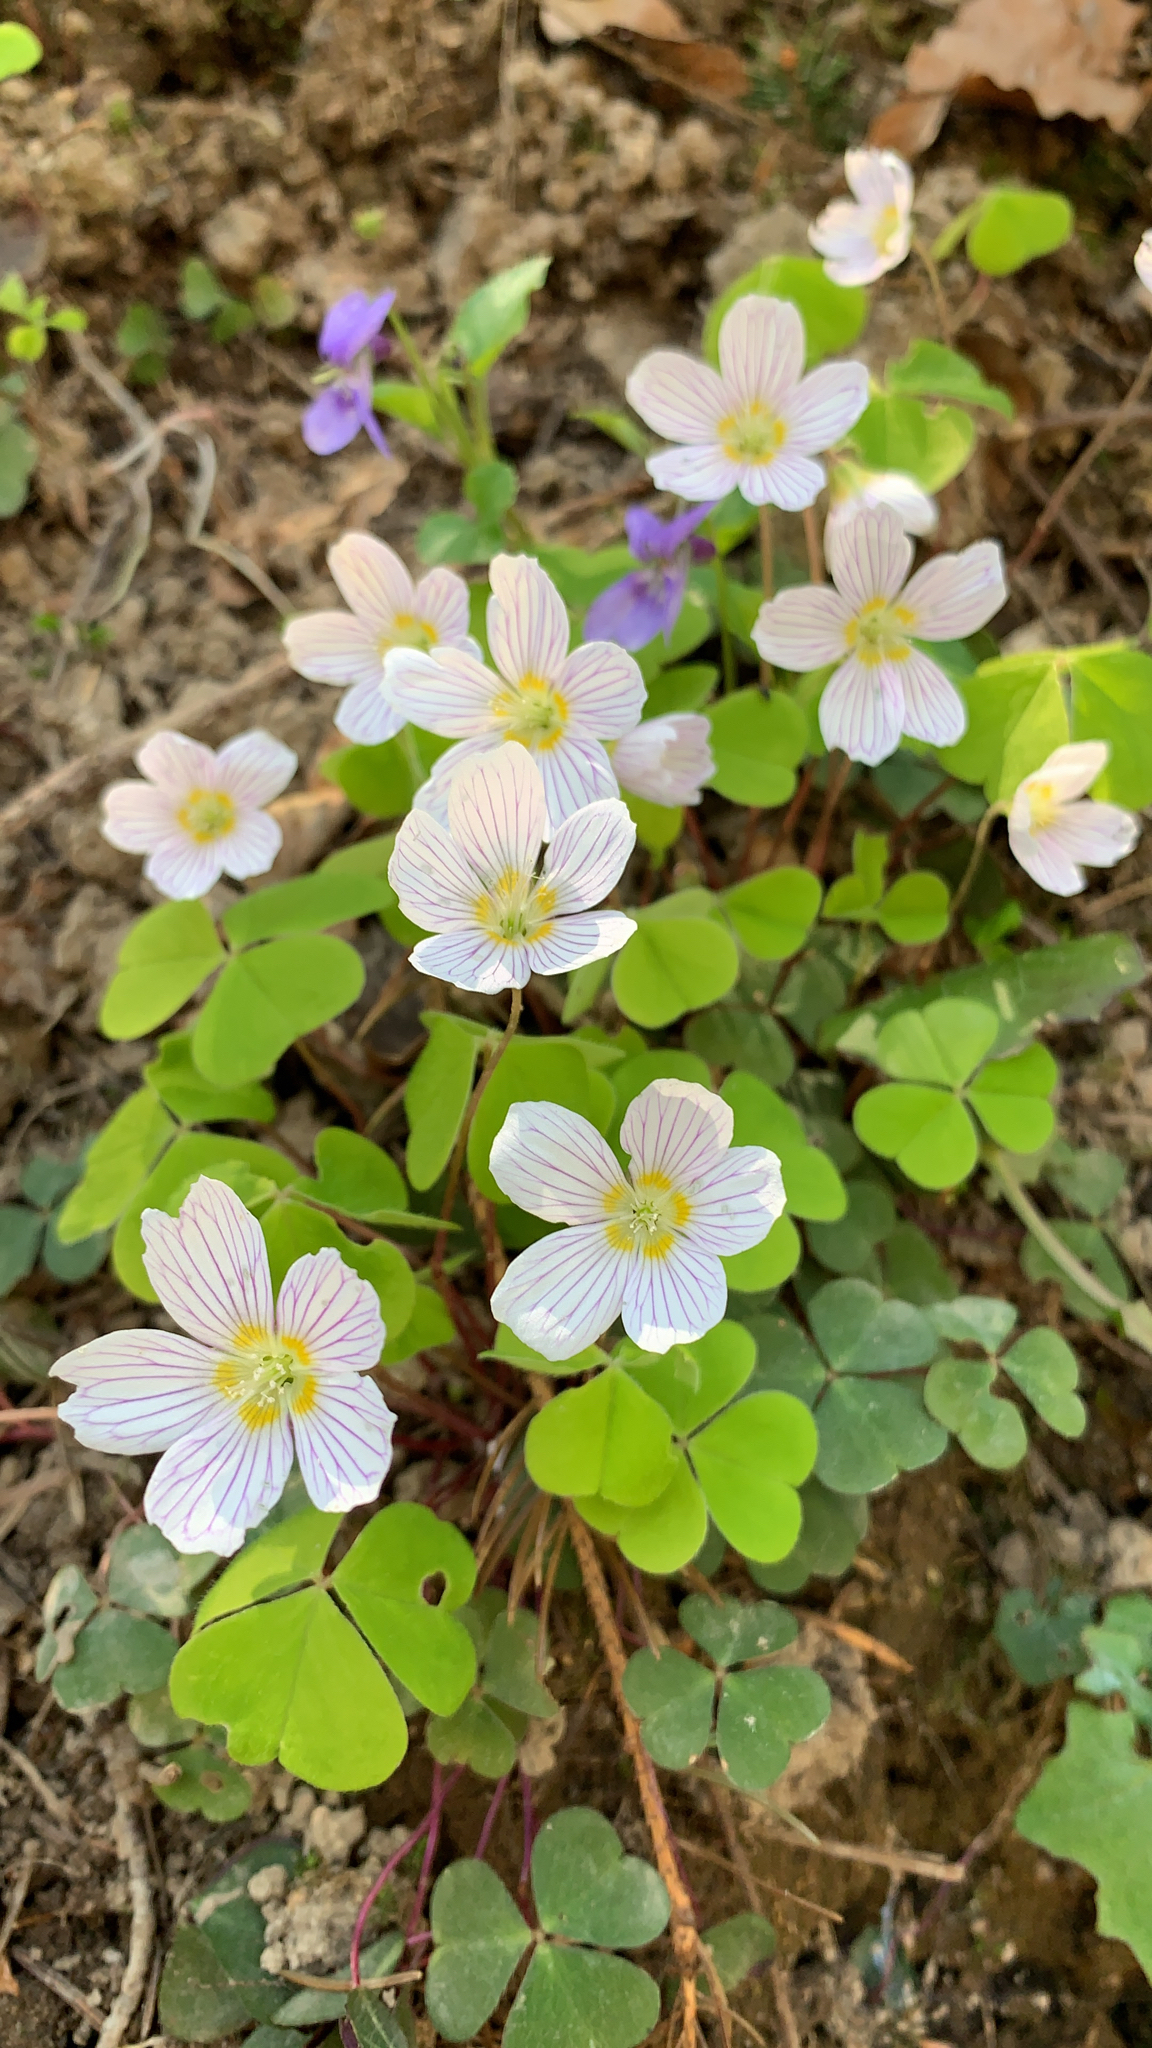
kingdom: Plantae
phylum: Tracheophyta
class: Magnoliopsida
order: Oxalidales
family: Oxalidaceae
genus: Oxalis
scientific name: Oxalis acetosella
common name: Wood-sorrel
